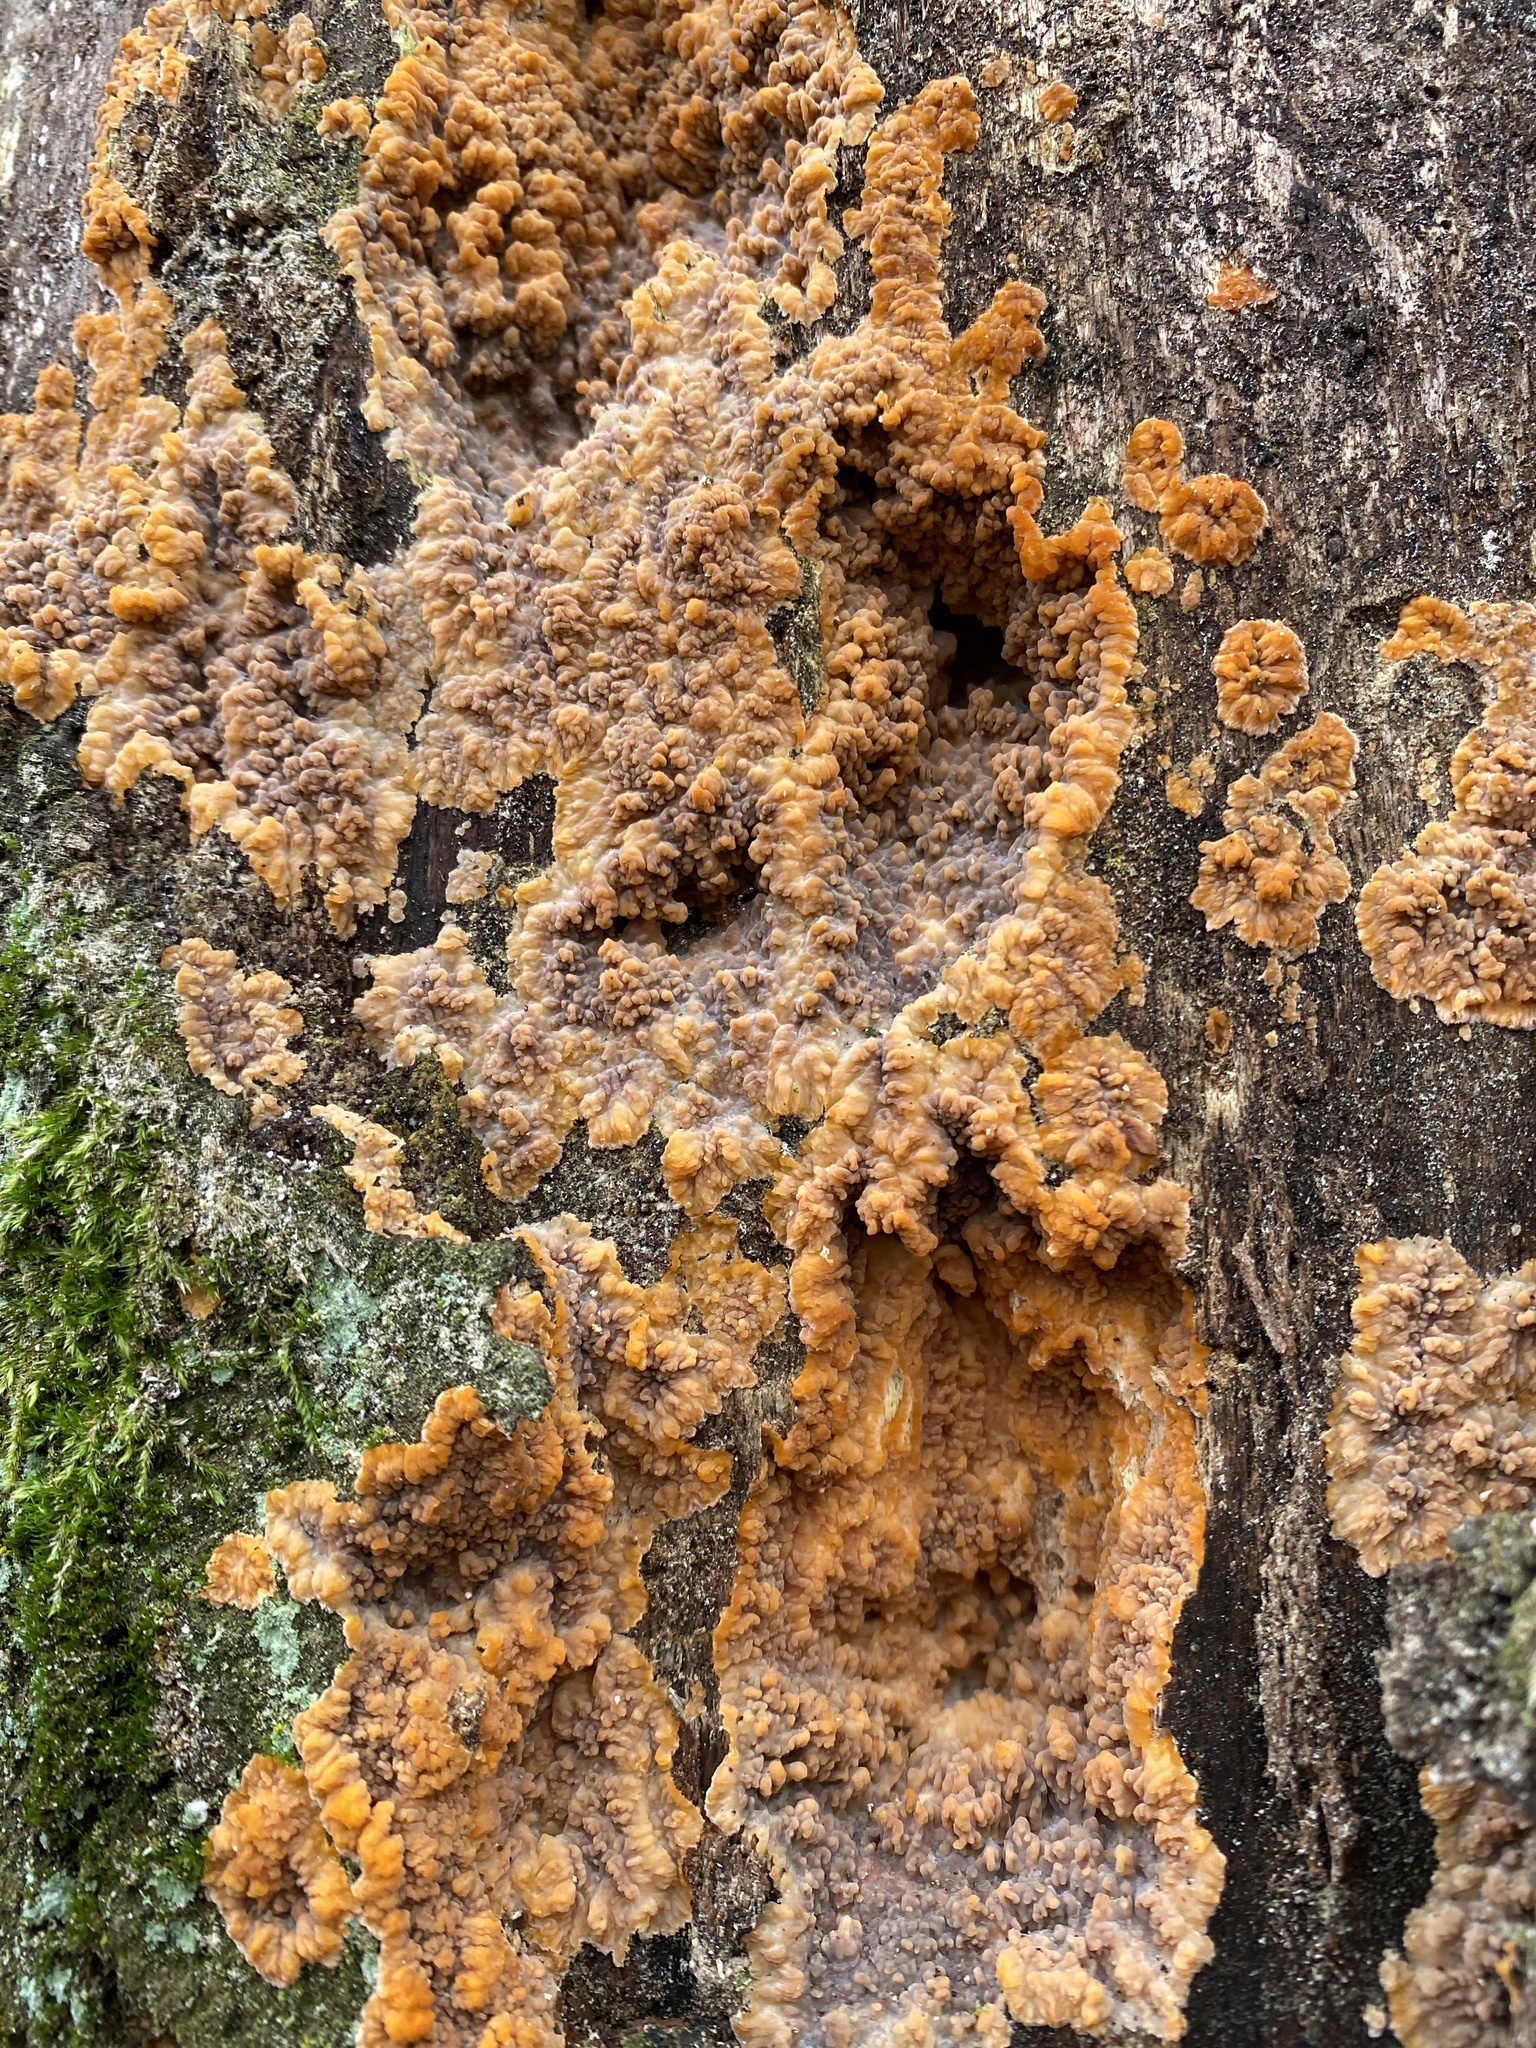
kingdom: Fungi
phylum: Basidiomycota
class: Agaricomycetes
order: Polyporales
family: Meruliaceae
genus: Phlebia
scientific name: Phlebia radiata
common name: Wrinkled crust
